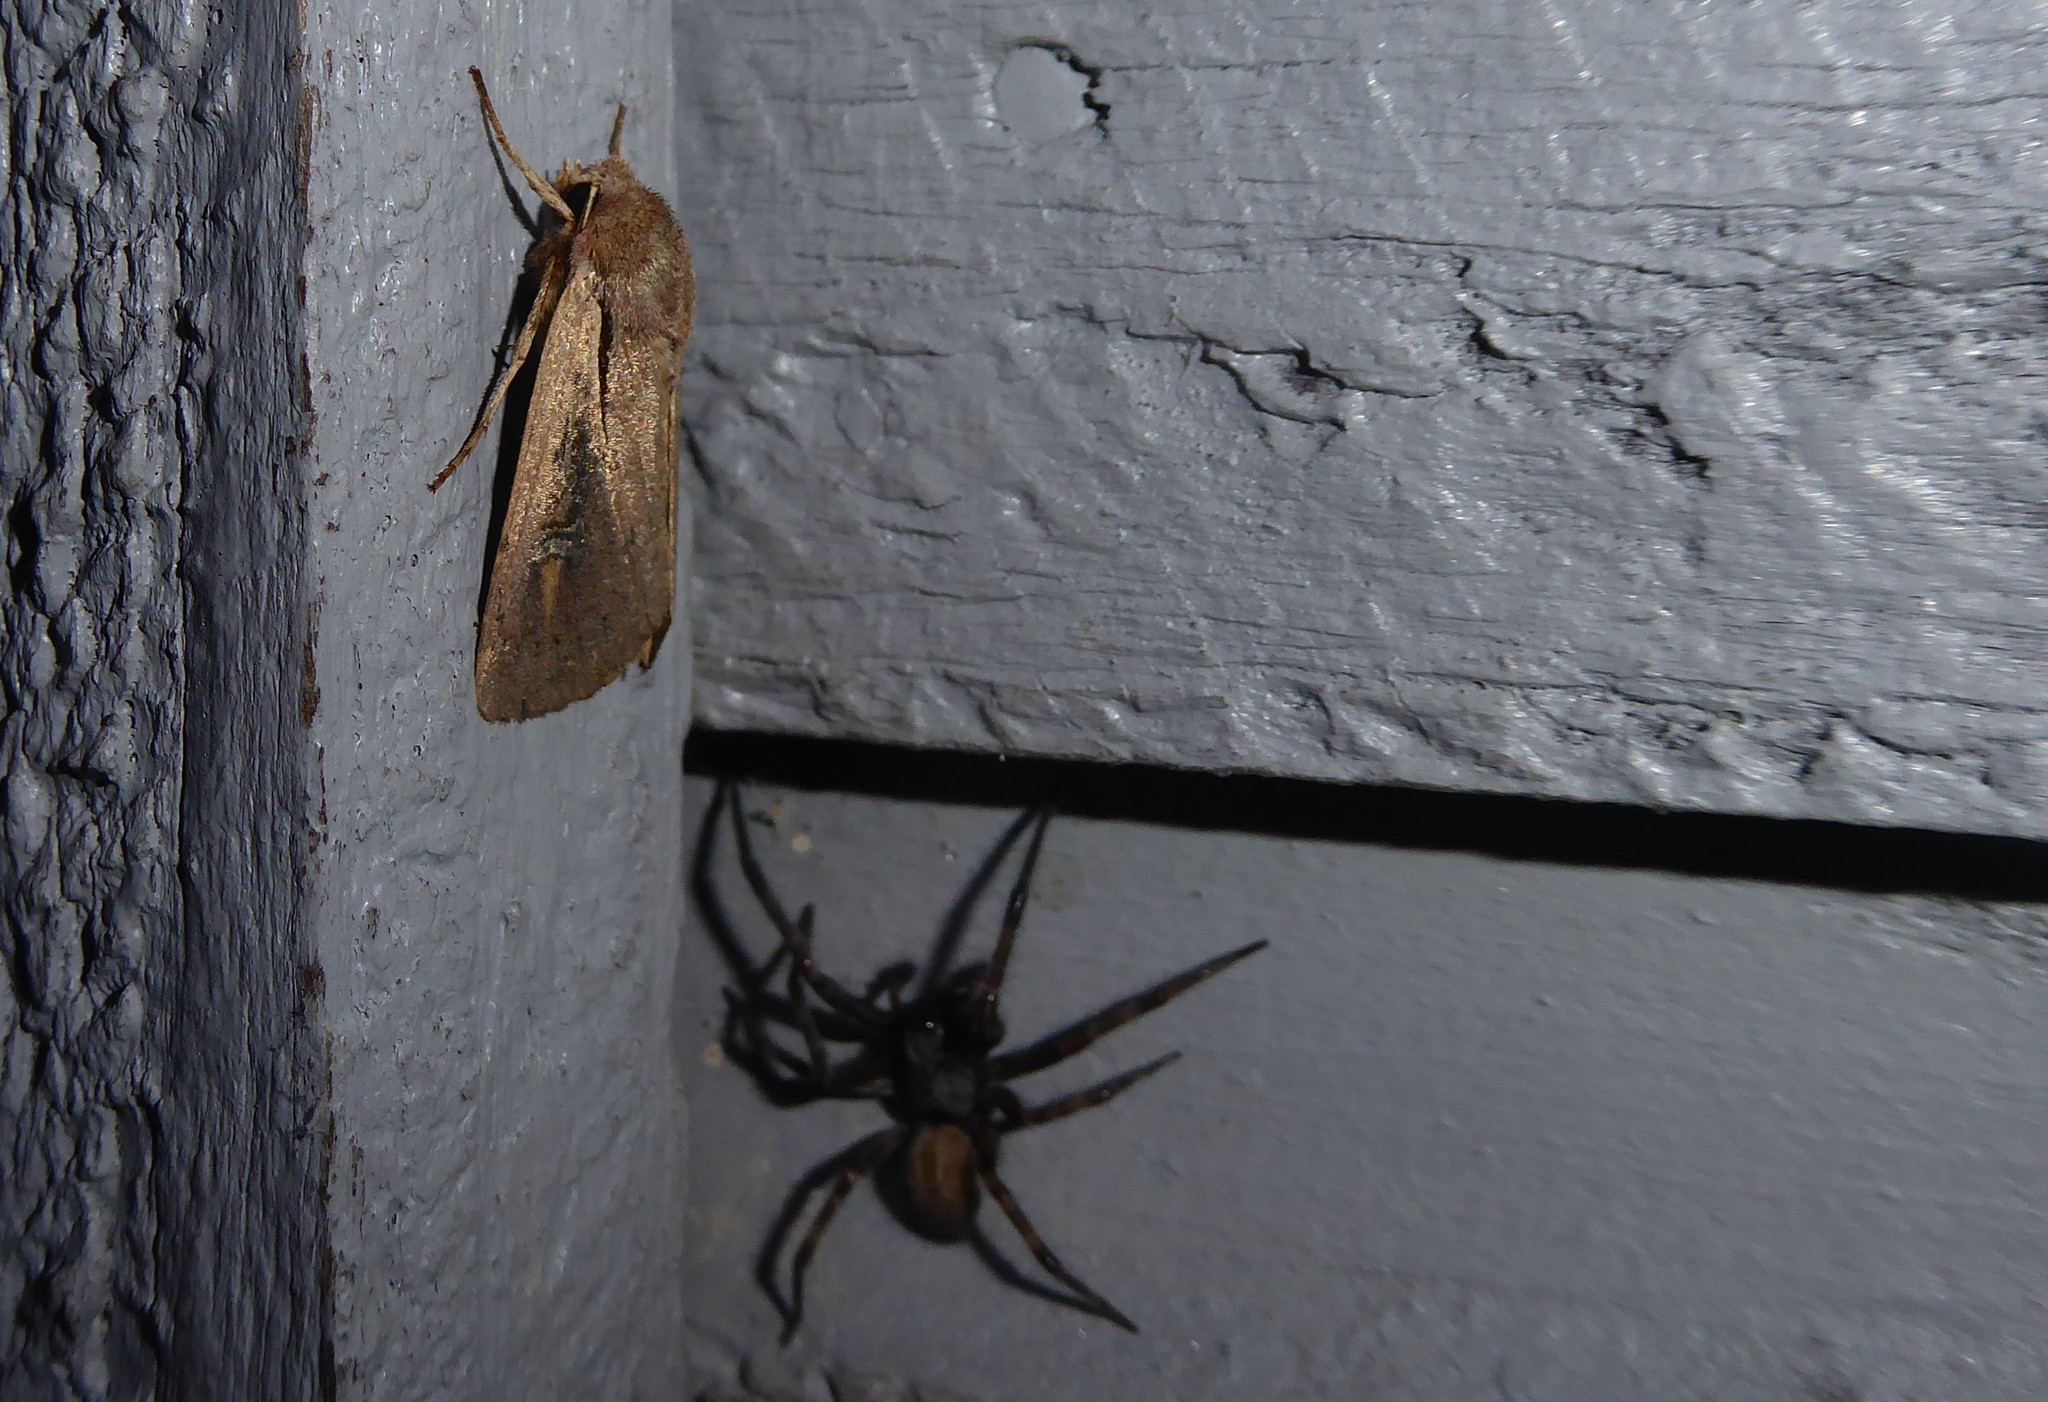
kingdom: Animalia
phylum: Arthropoda
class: Insecta
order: Lepidoptera
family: Noctuidae
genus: Ichneutica
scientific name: Ichneutica atristriga
